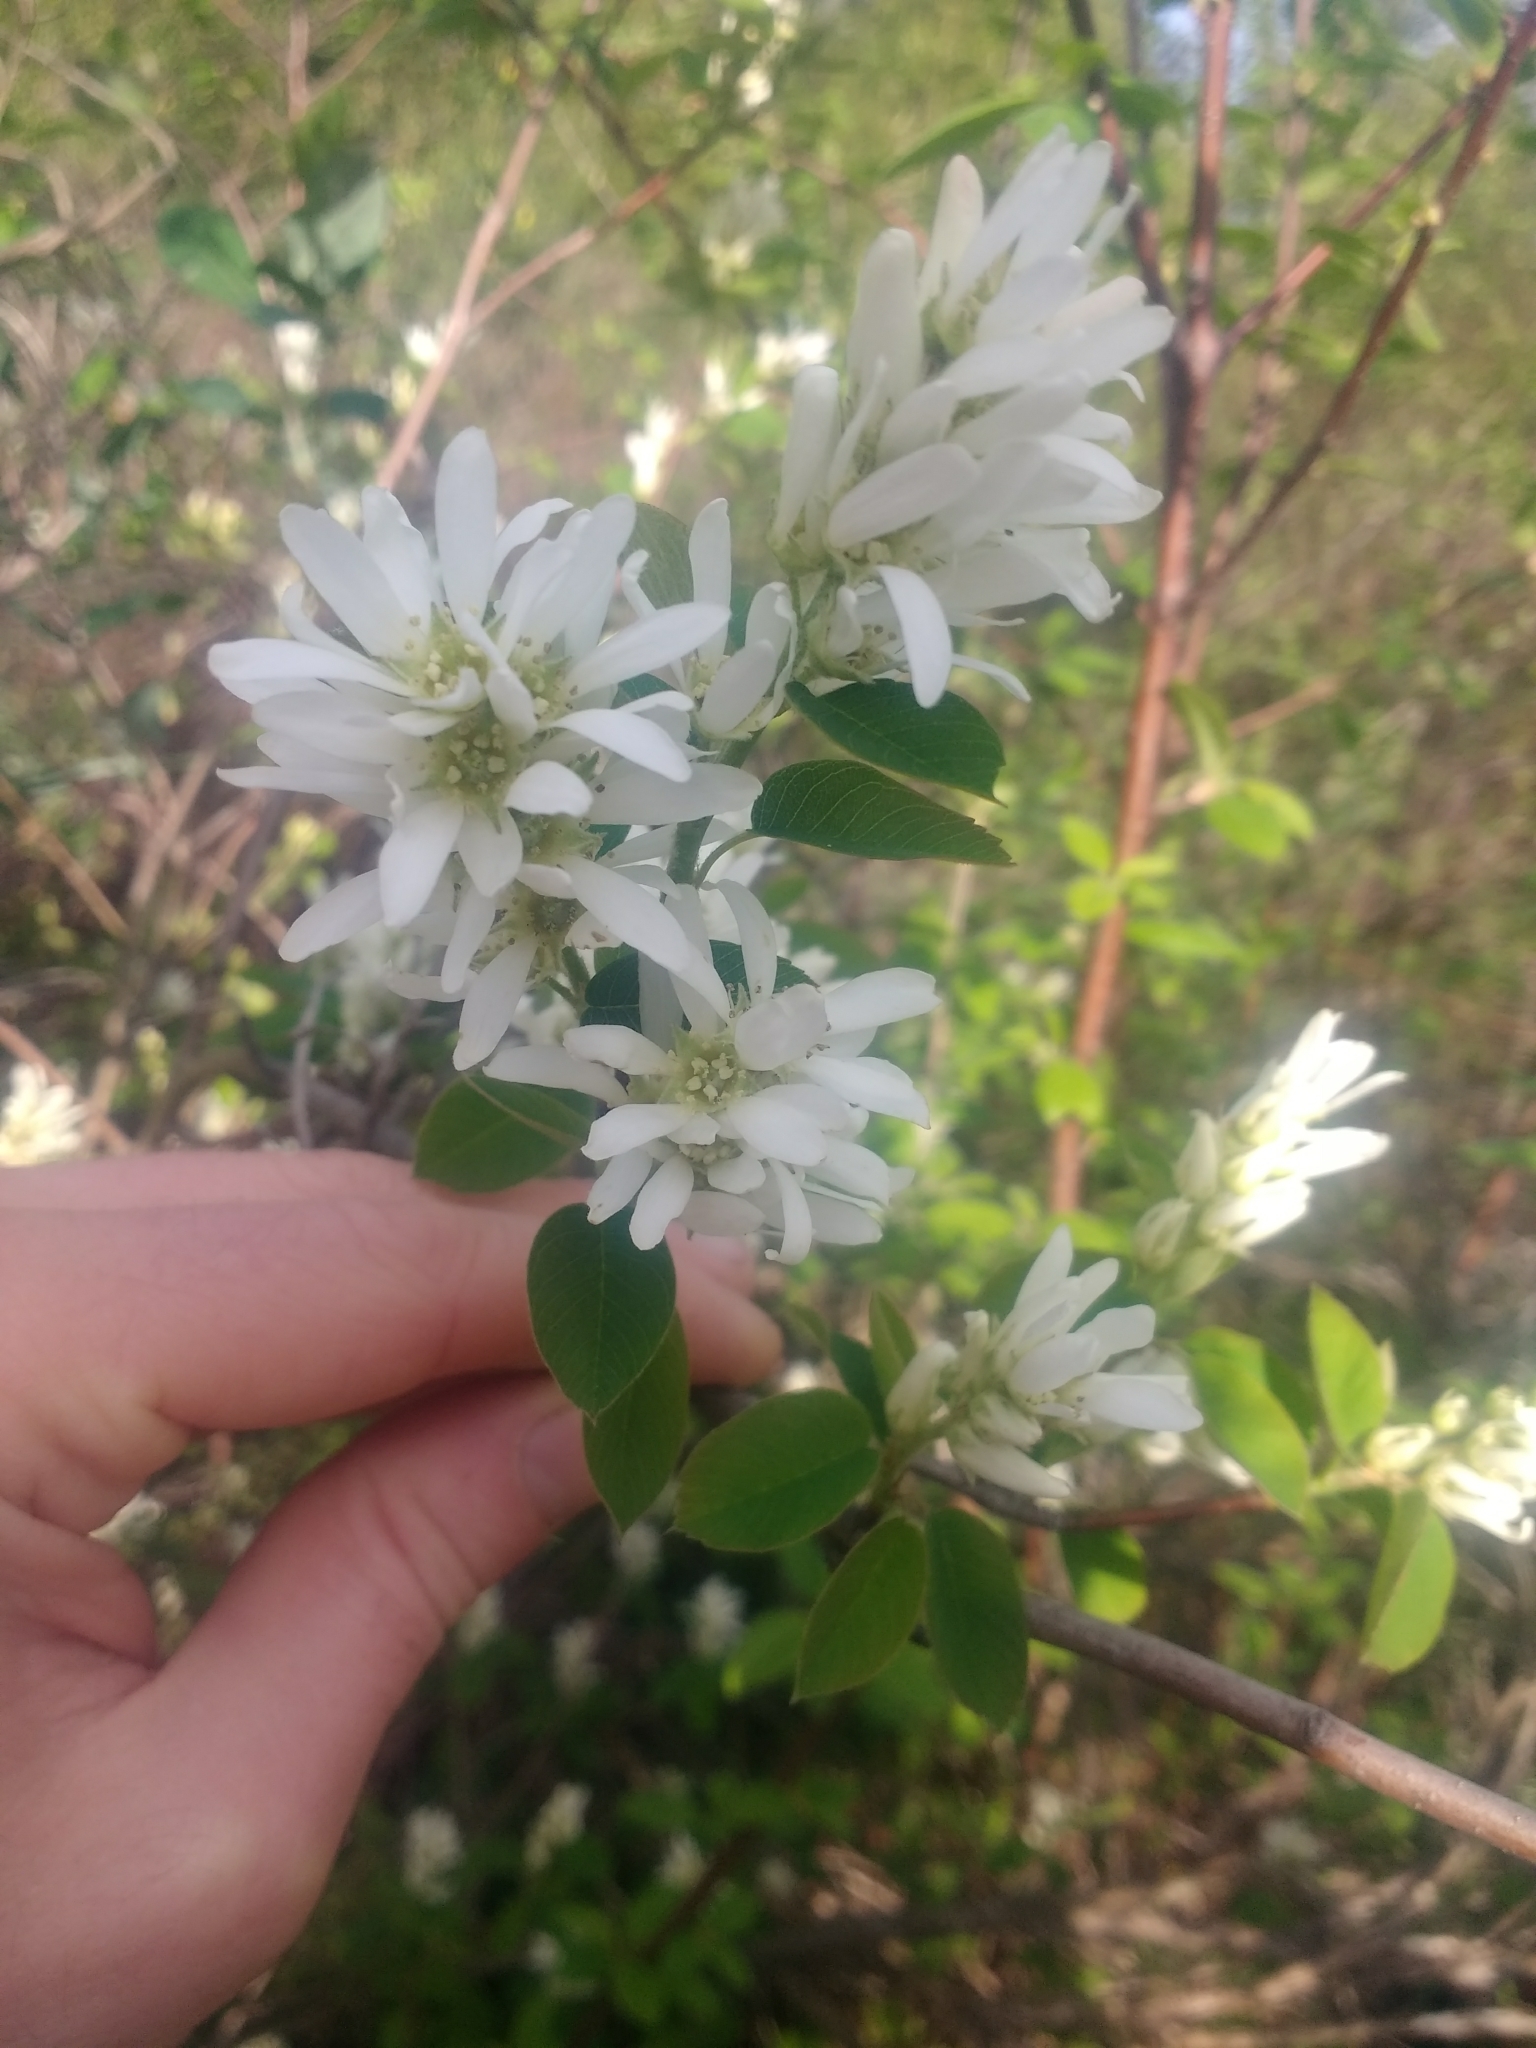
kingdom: Plantae
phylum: Tracheophyta
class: Magnoliopsida
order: Rosales
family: Rosaceae
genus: Amelanchier
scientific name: Amelanchier alnifolia
